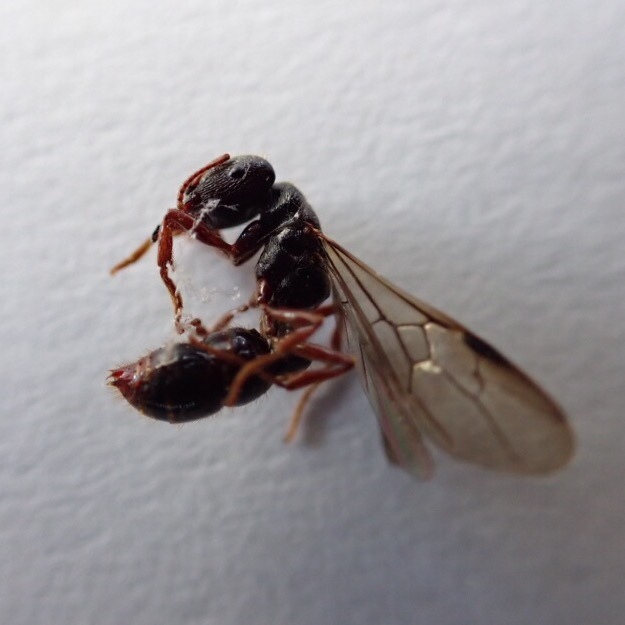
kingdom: Animalia
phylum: Arthropoda
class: Insecta
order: Hymenoptera
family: Formicidae
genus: Amblyopone
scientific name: Amblyopone australis
